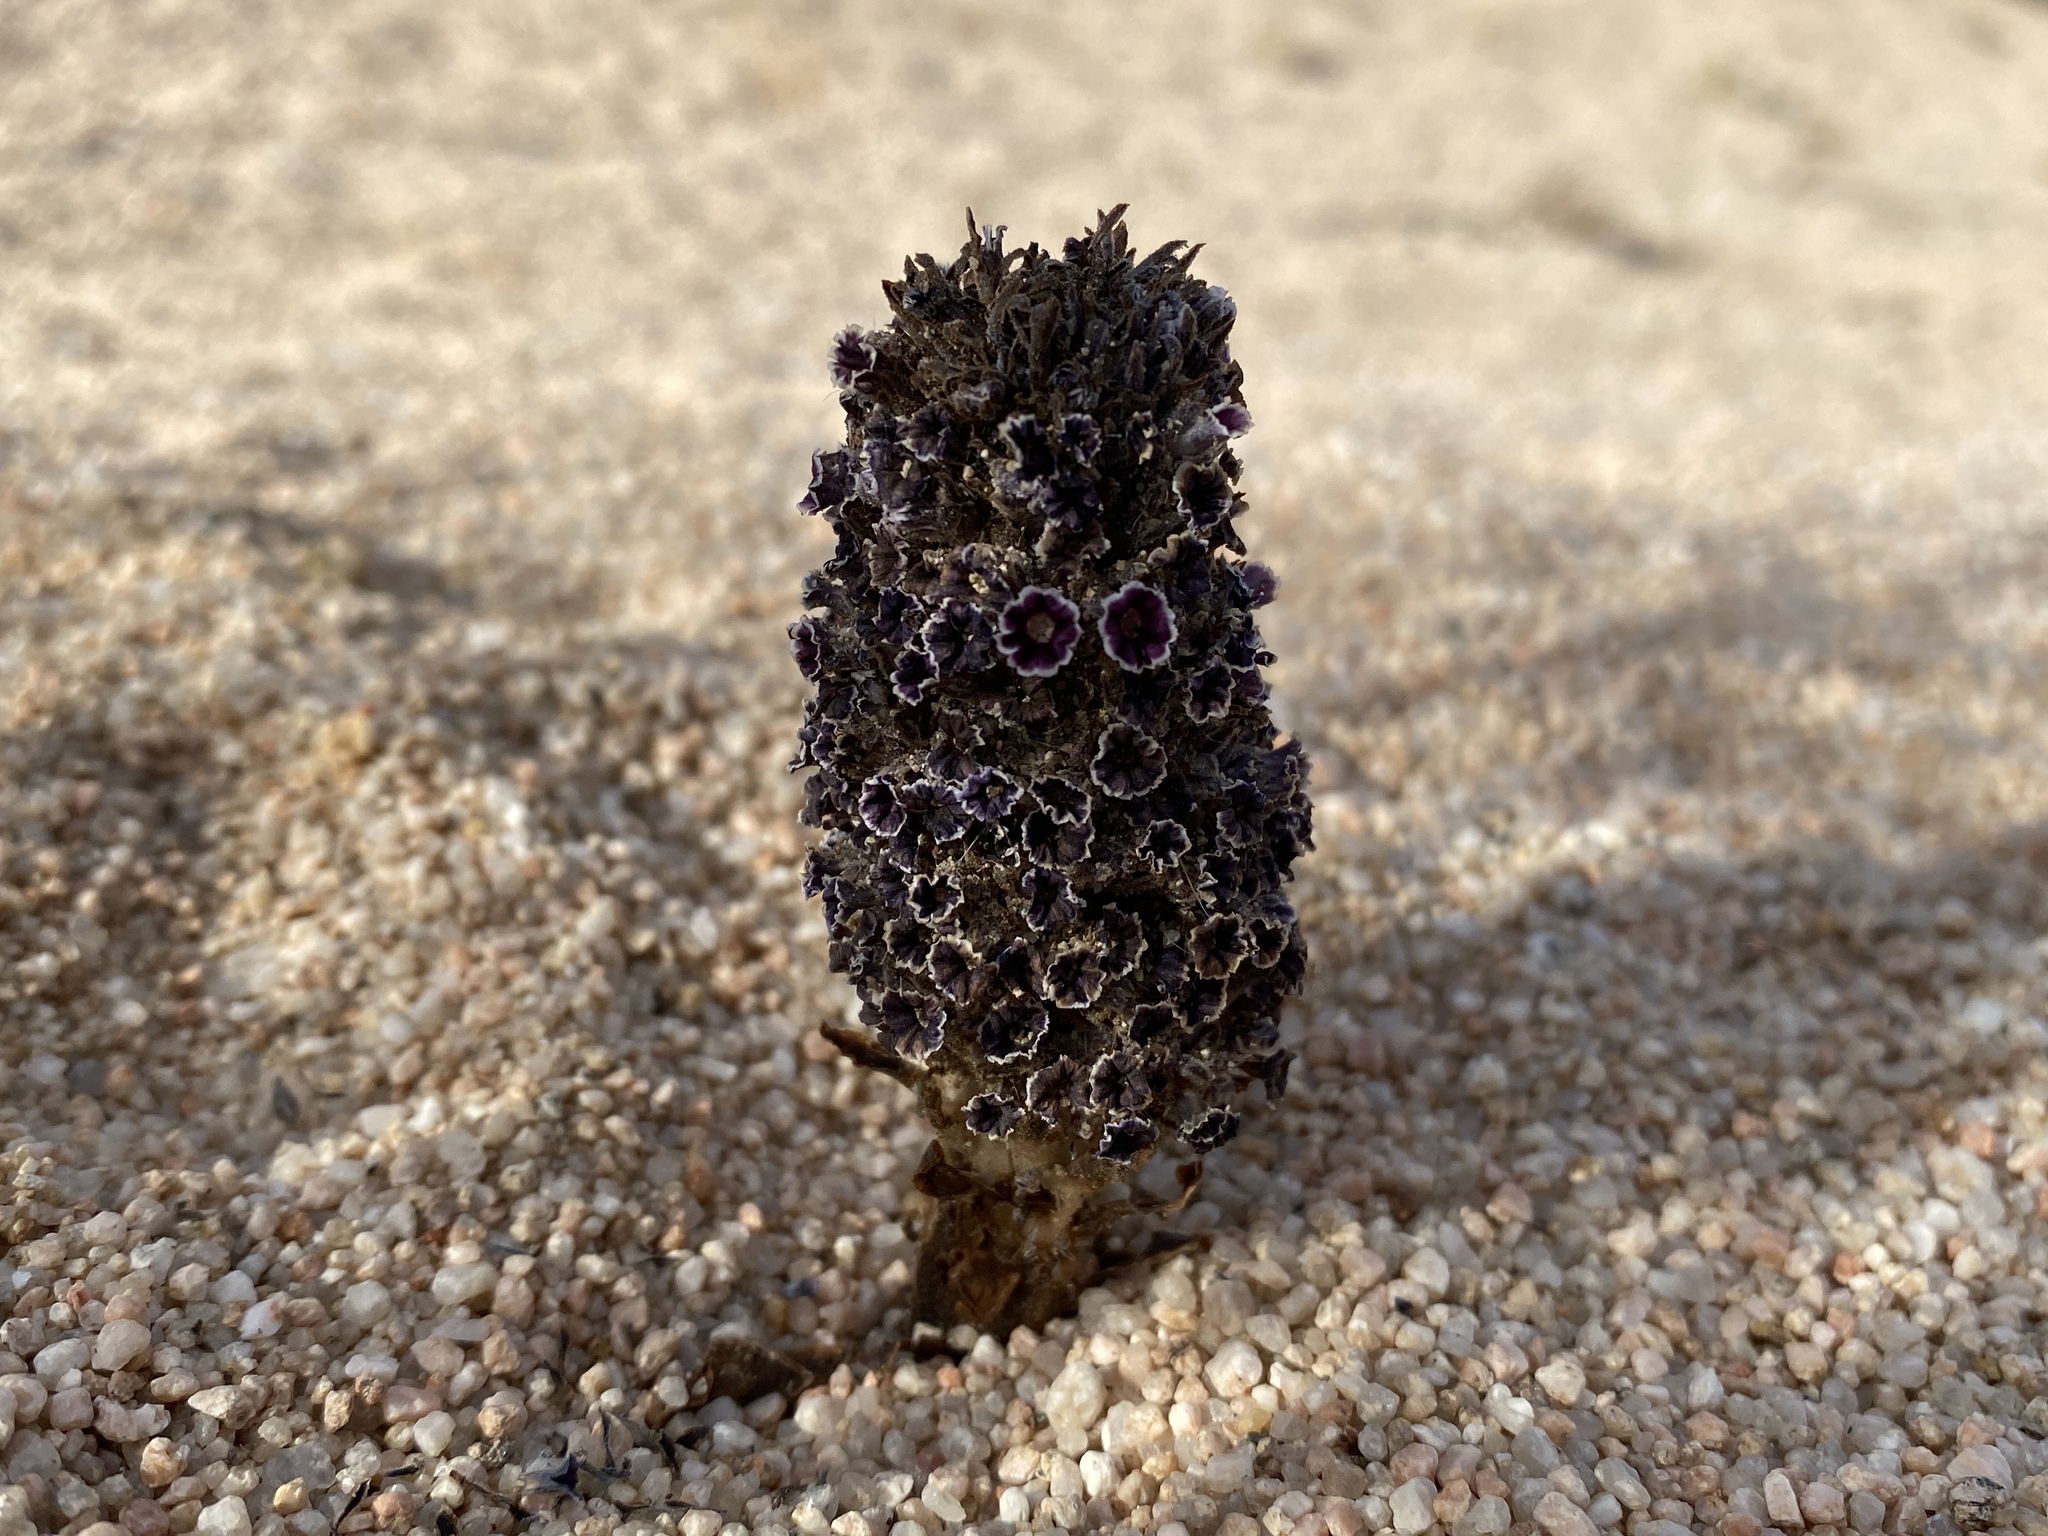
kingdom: Plantae
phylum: Tracheophyta
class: Magnoliopsida
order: Boraginales
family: Lennoaceae
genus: Pholisma
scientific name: Pholisma arenarium
